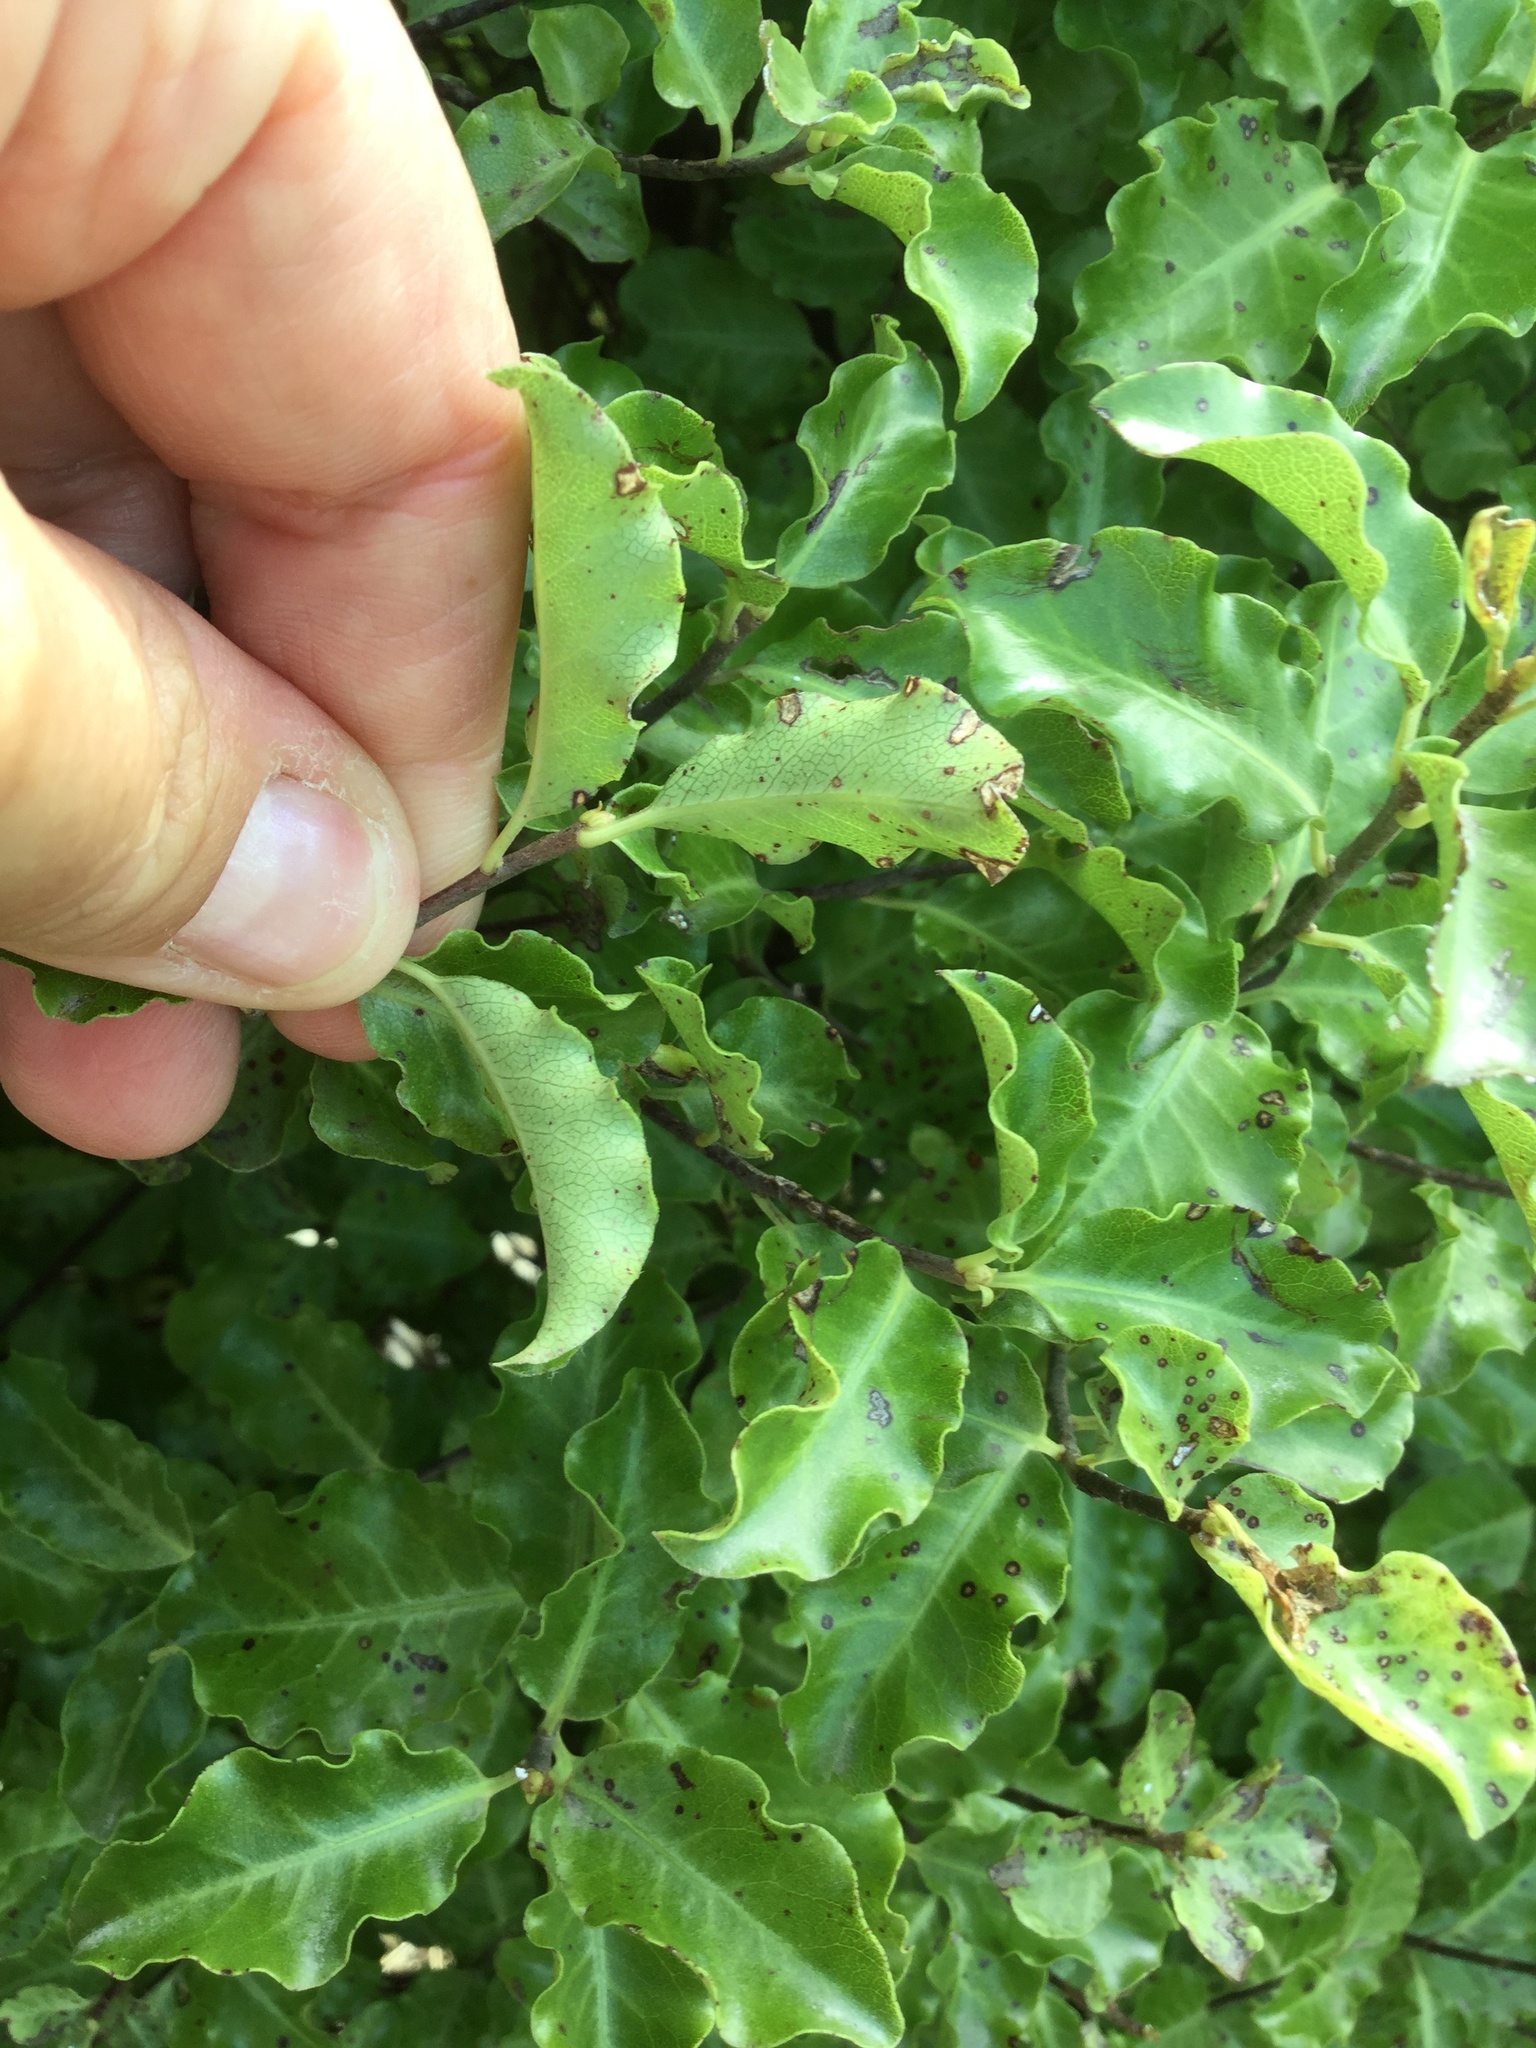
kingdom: Plantae
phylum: Tracheophyta
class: Magnoliopsida
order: Apiales
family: Pittosporaceae
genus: Pittosporum
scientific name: Pittosporum tenuifolium
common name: Kohuhu
